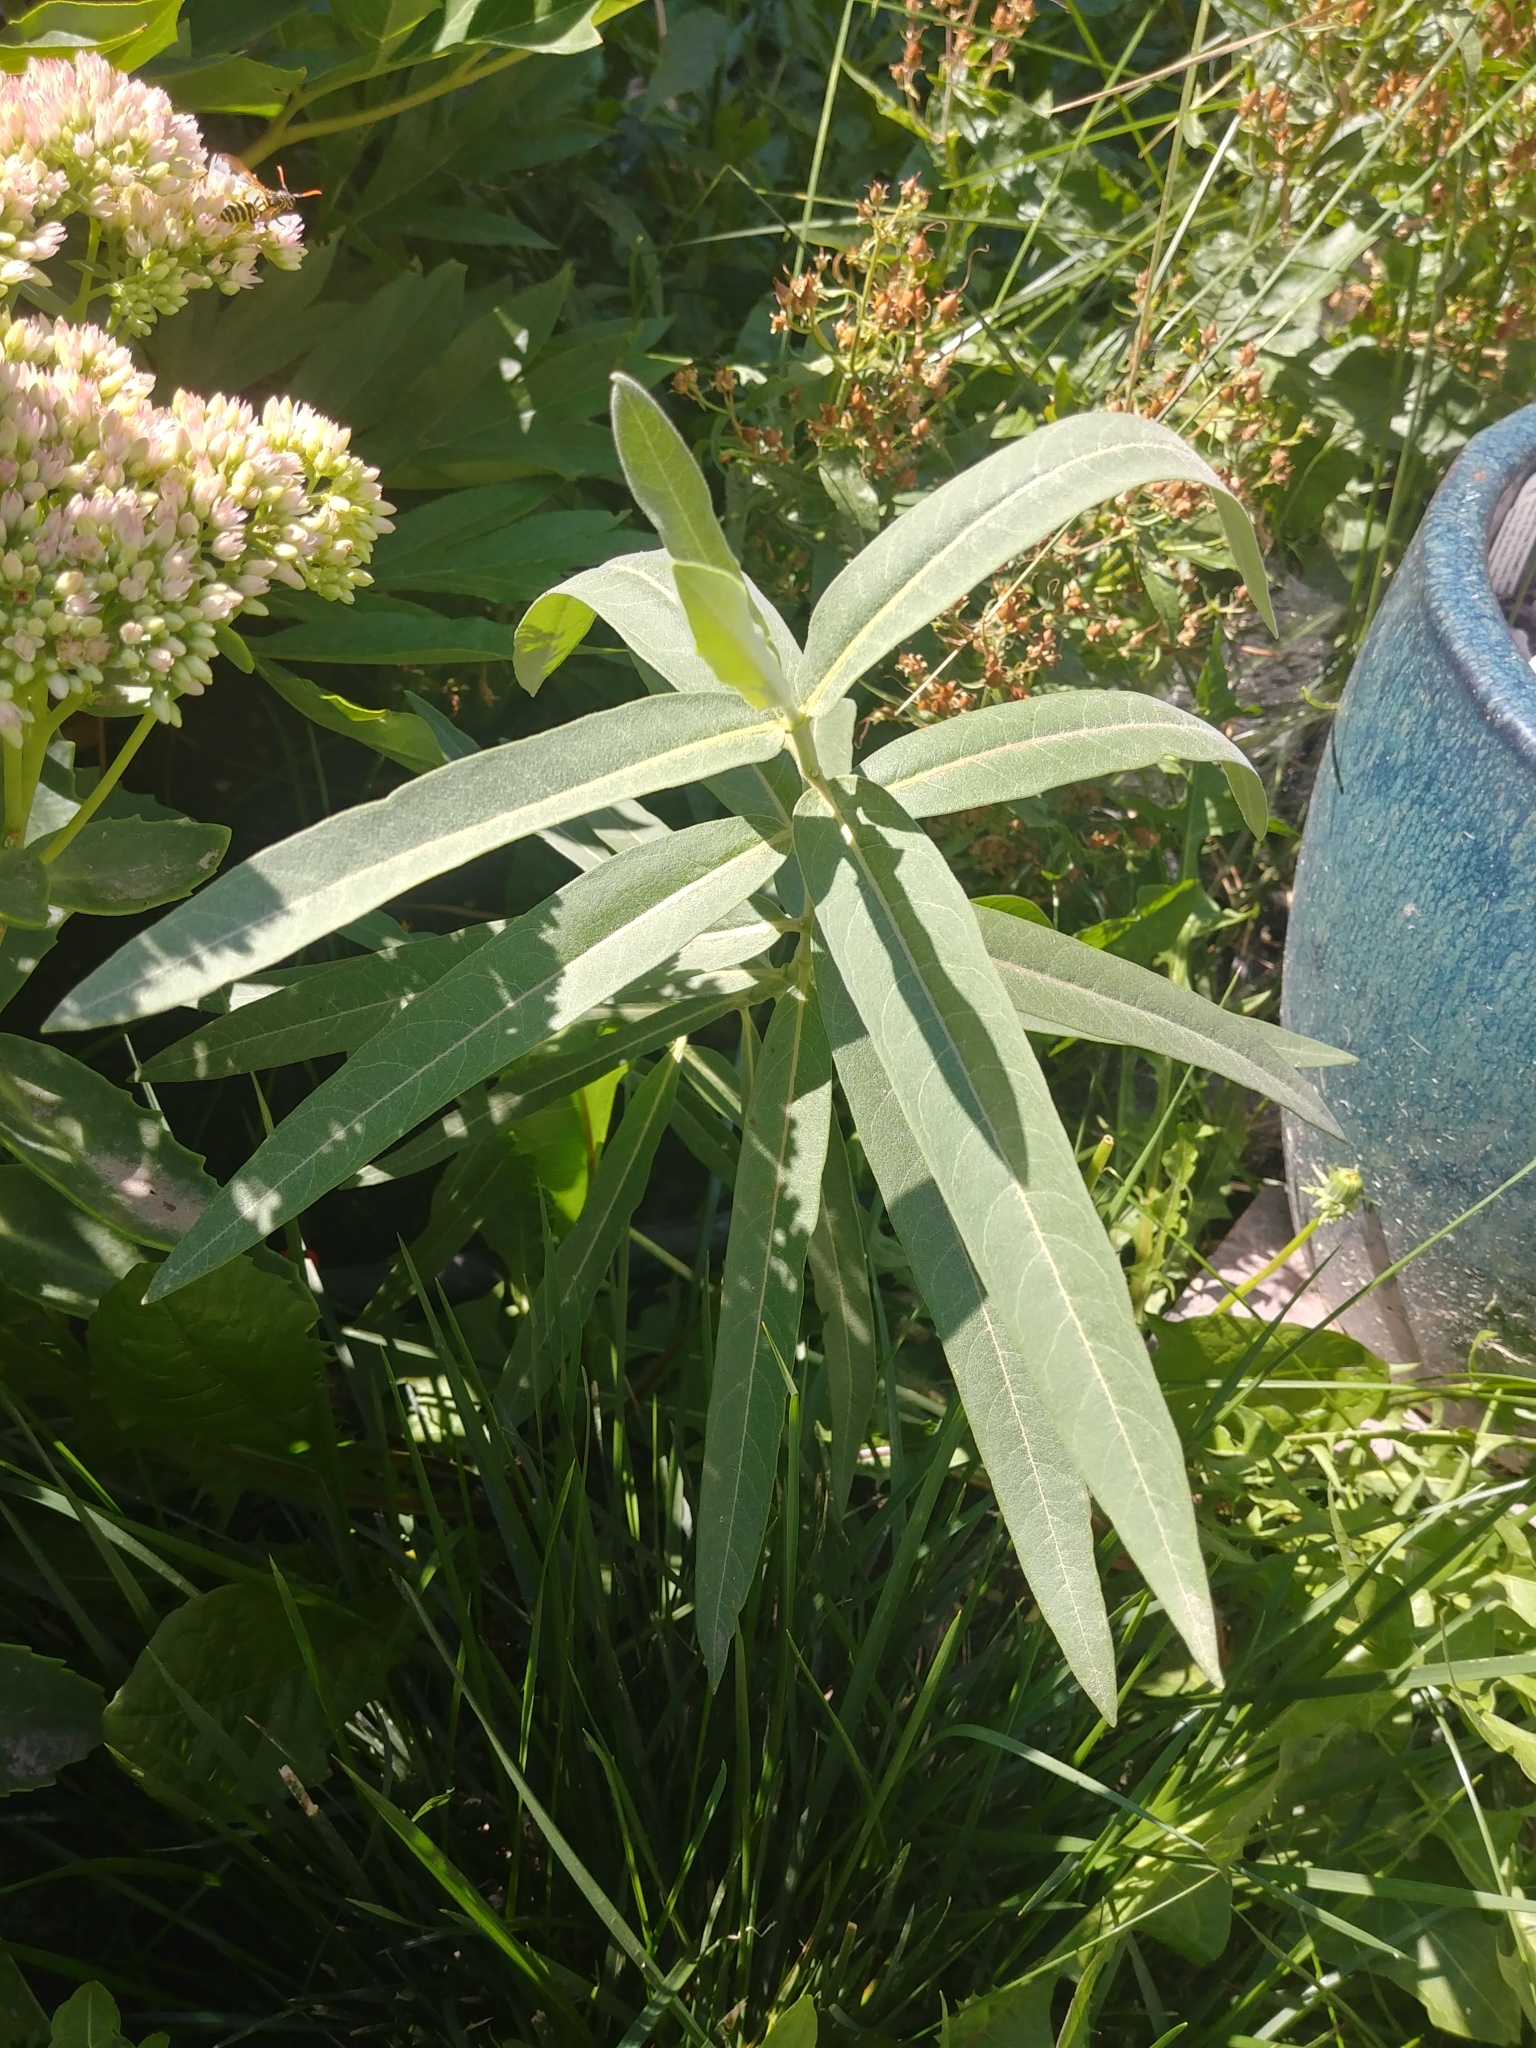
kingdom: Plantae
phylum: Tracheophyta
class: Magnoliopsida
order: Gentianales
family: Apocynaceae
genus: Asclepias
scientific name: Asclepias speciosa
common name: Showy milkweed
